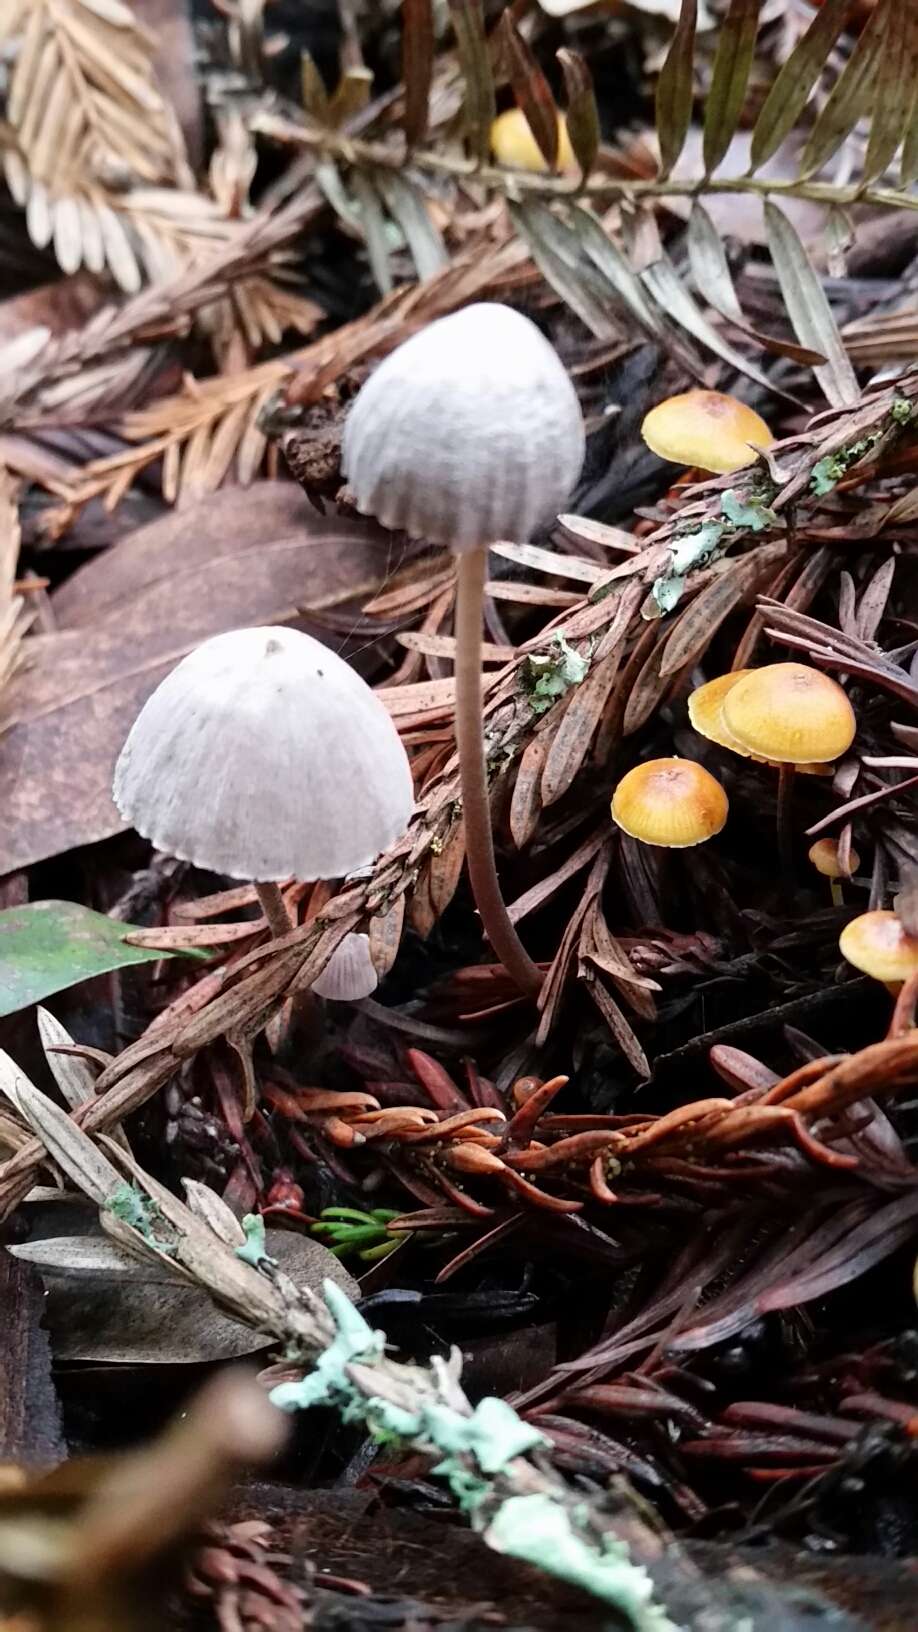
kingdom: Fungi
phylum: Basidiomycota
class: Agaricomycetes
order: Agaricales
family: Mycenaceae
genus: Mycena
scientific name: Mycena capillaripes
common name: Pinkedge bonnet
